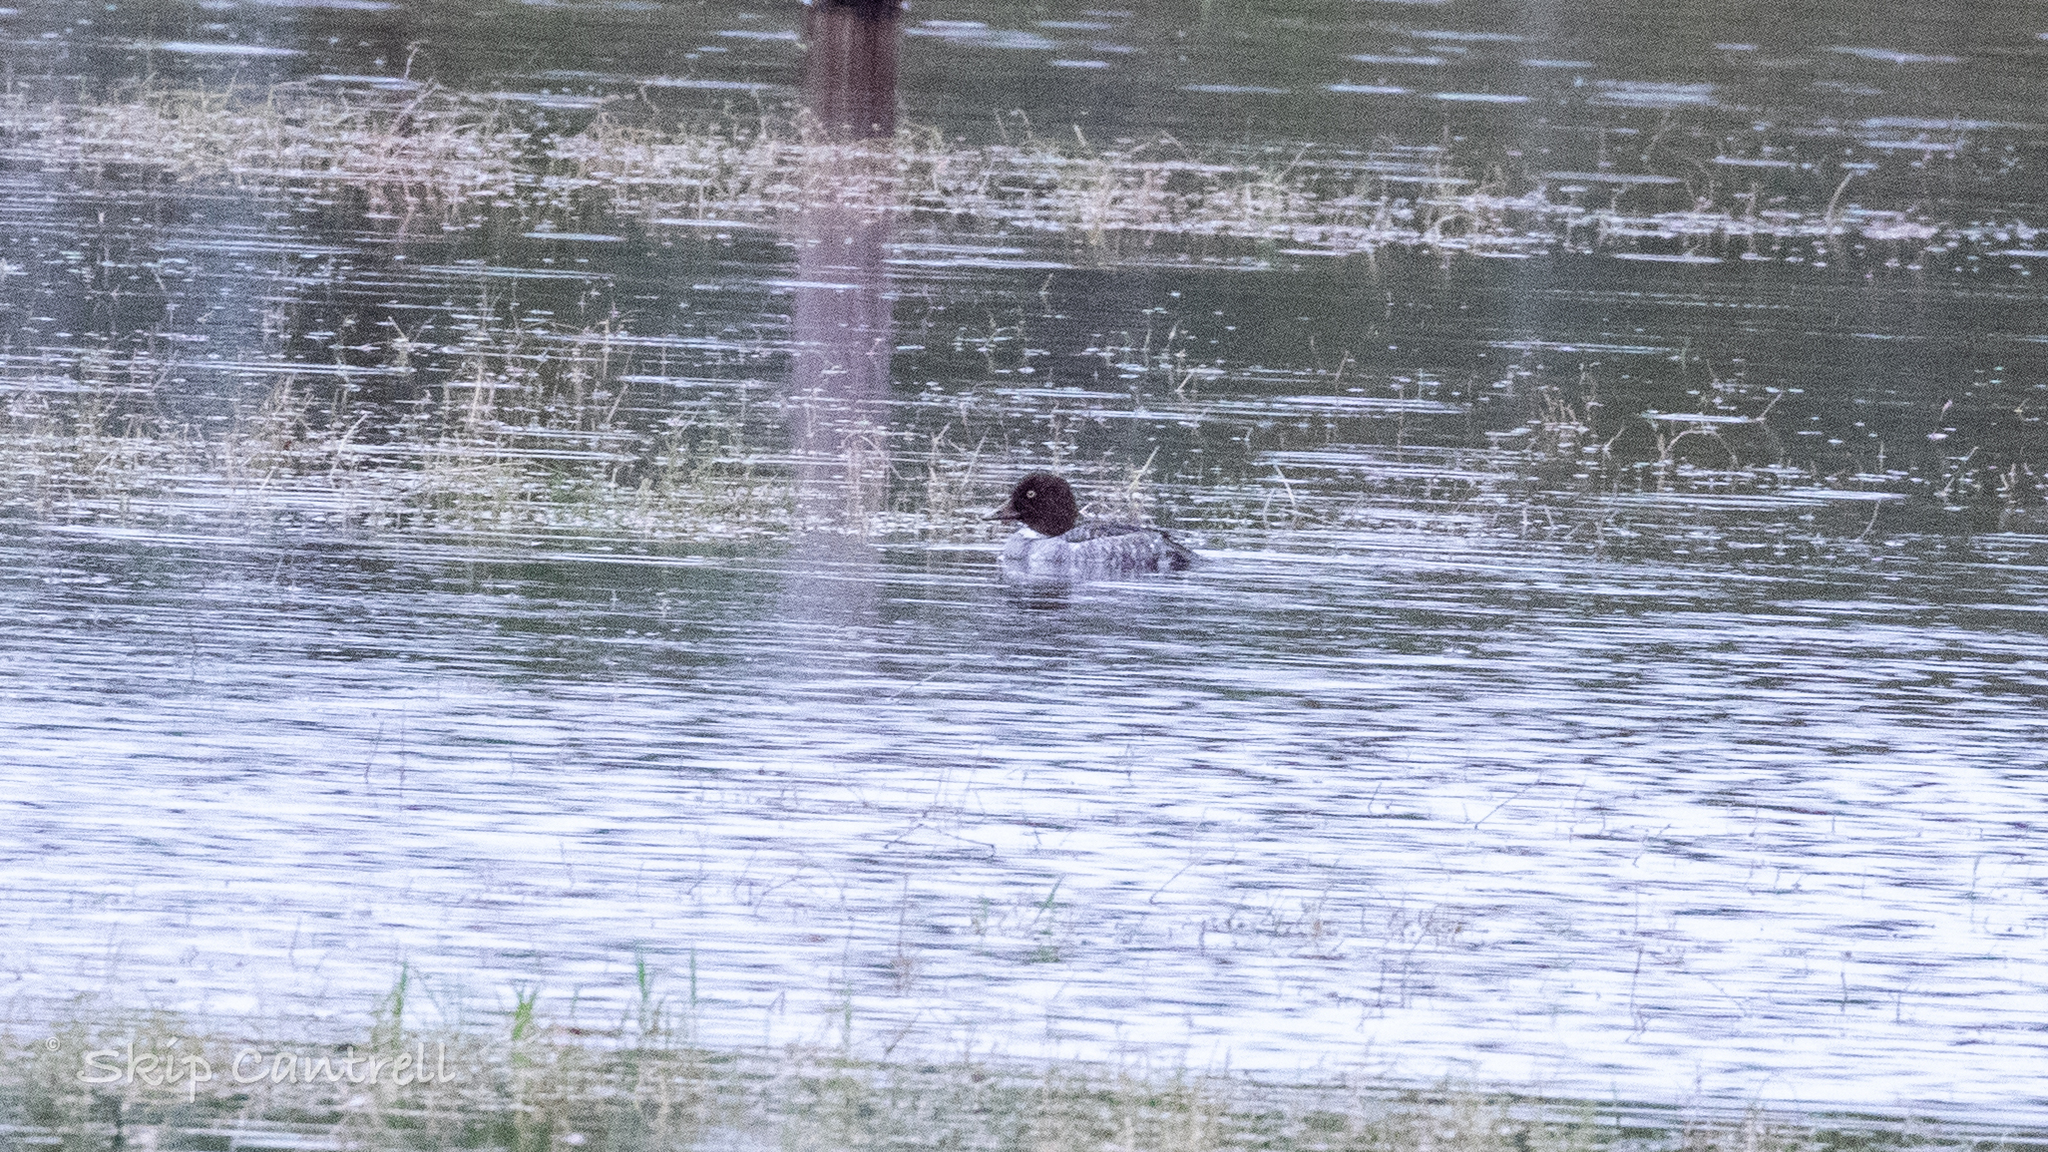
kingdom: Animalia
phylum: Chordata
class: Aves
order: Anseriformes
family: Anatidae
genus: Bucephala
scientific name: Bucephala clangula
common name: Common goldeneye
